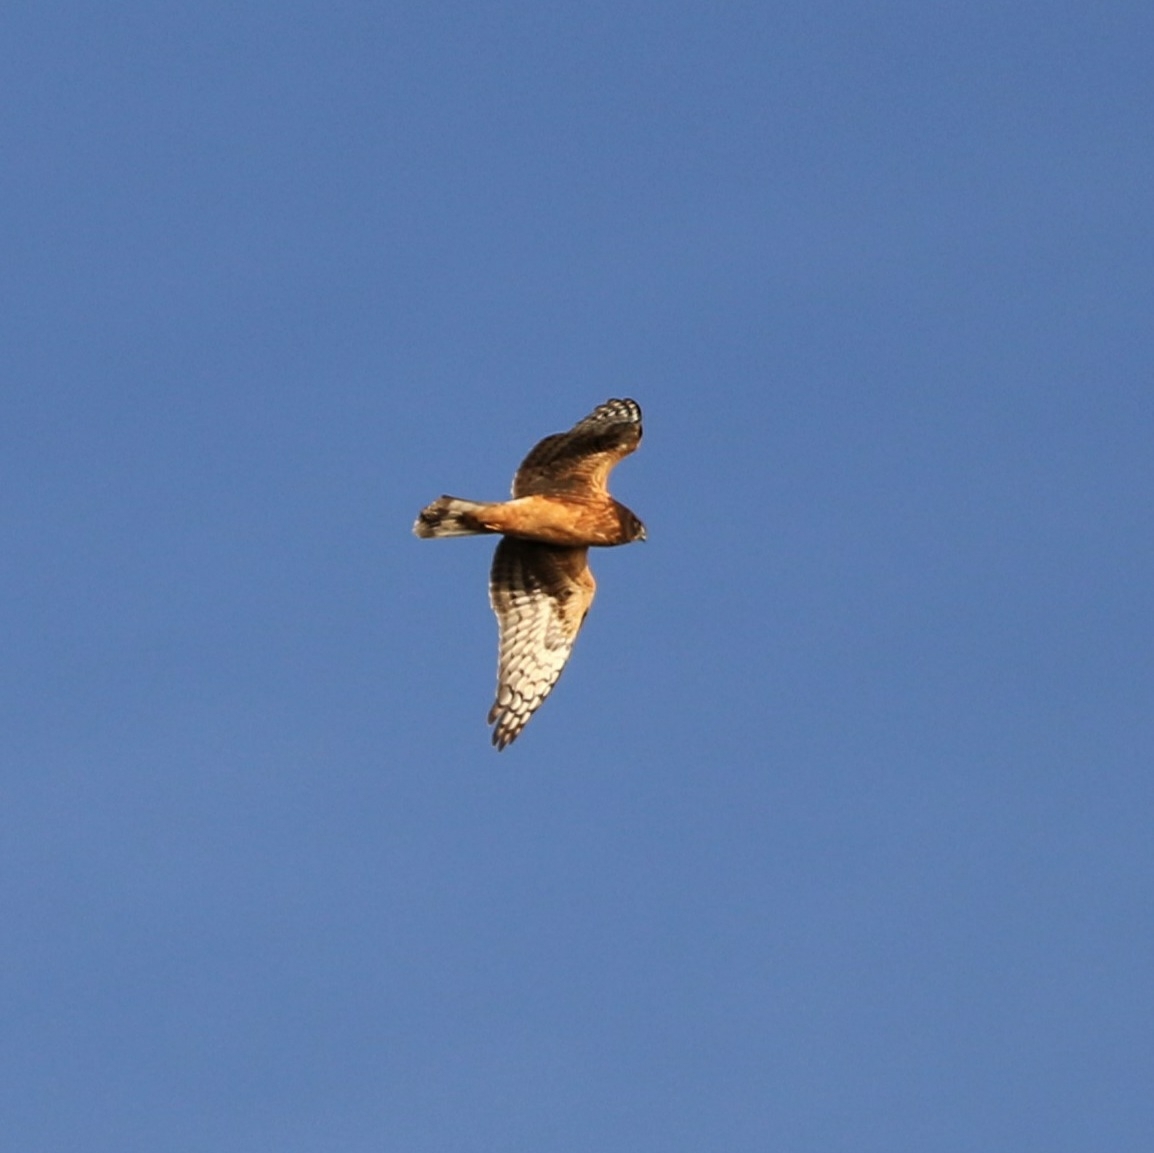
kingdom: Animalia
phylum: Chordata
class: Aves
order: Accipitriformes
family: Accipitridae
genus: Circus
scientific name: Circus cyaneus
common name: Hen harrier
